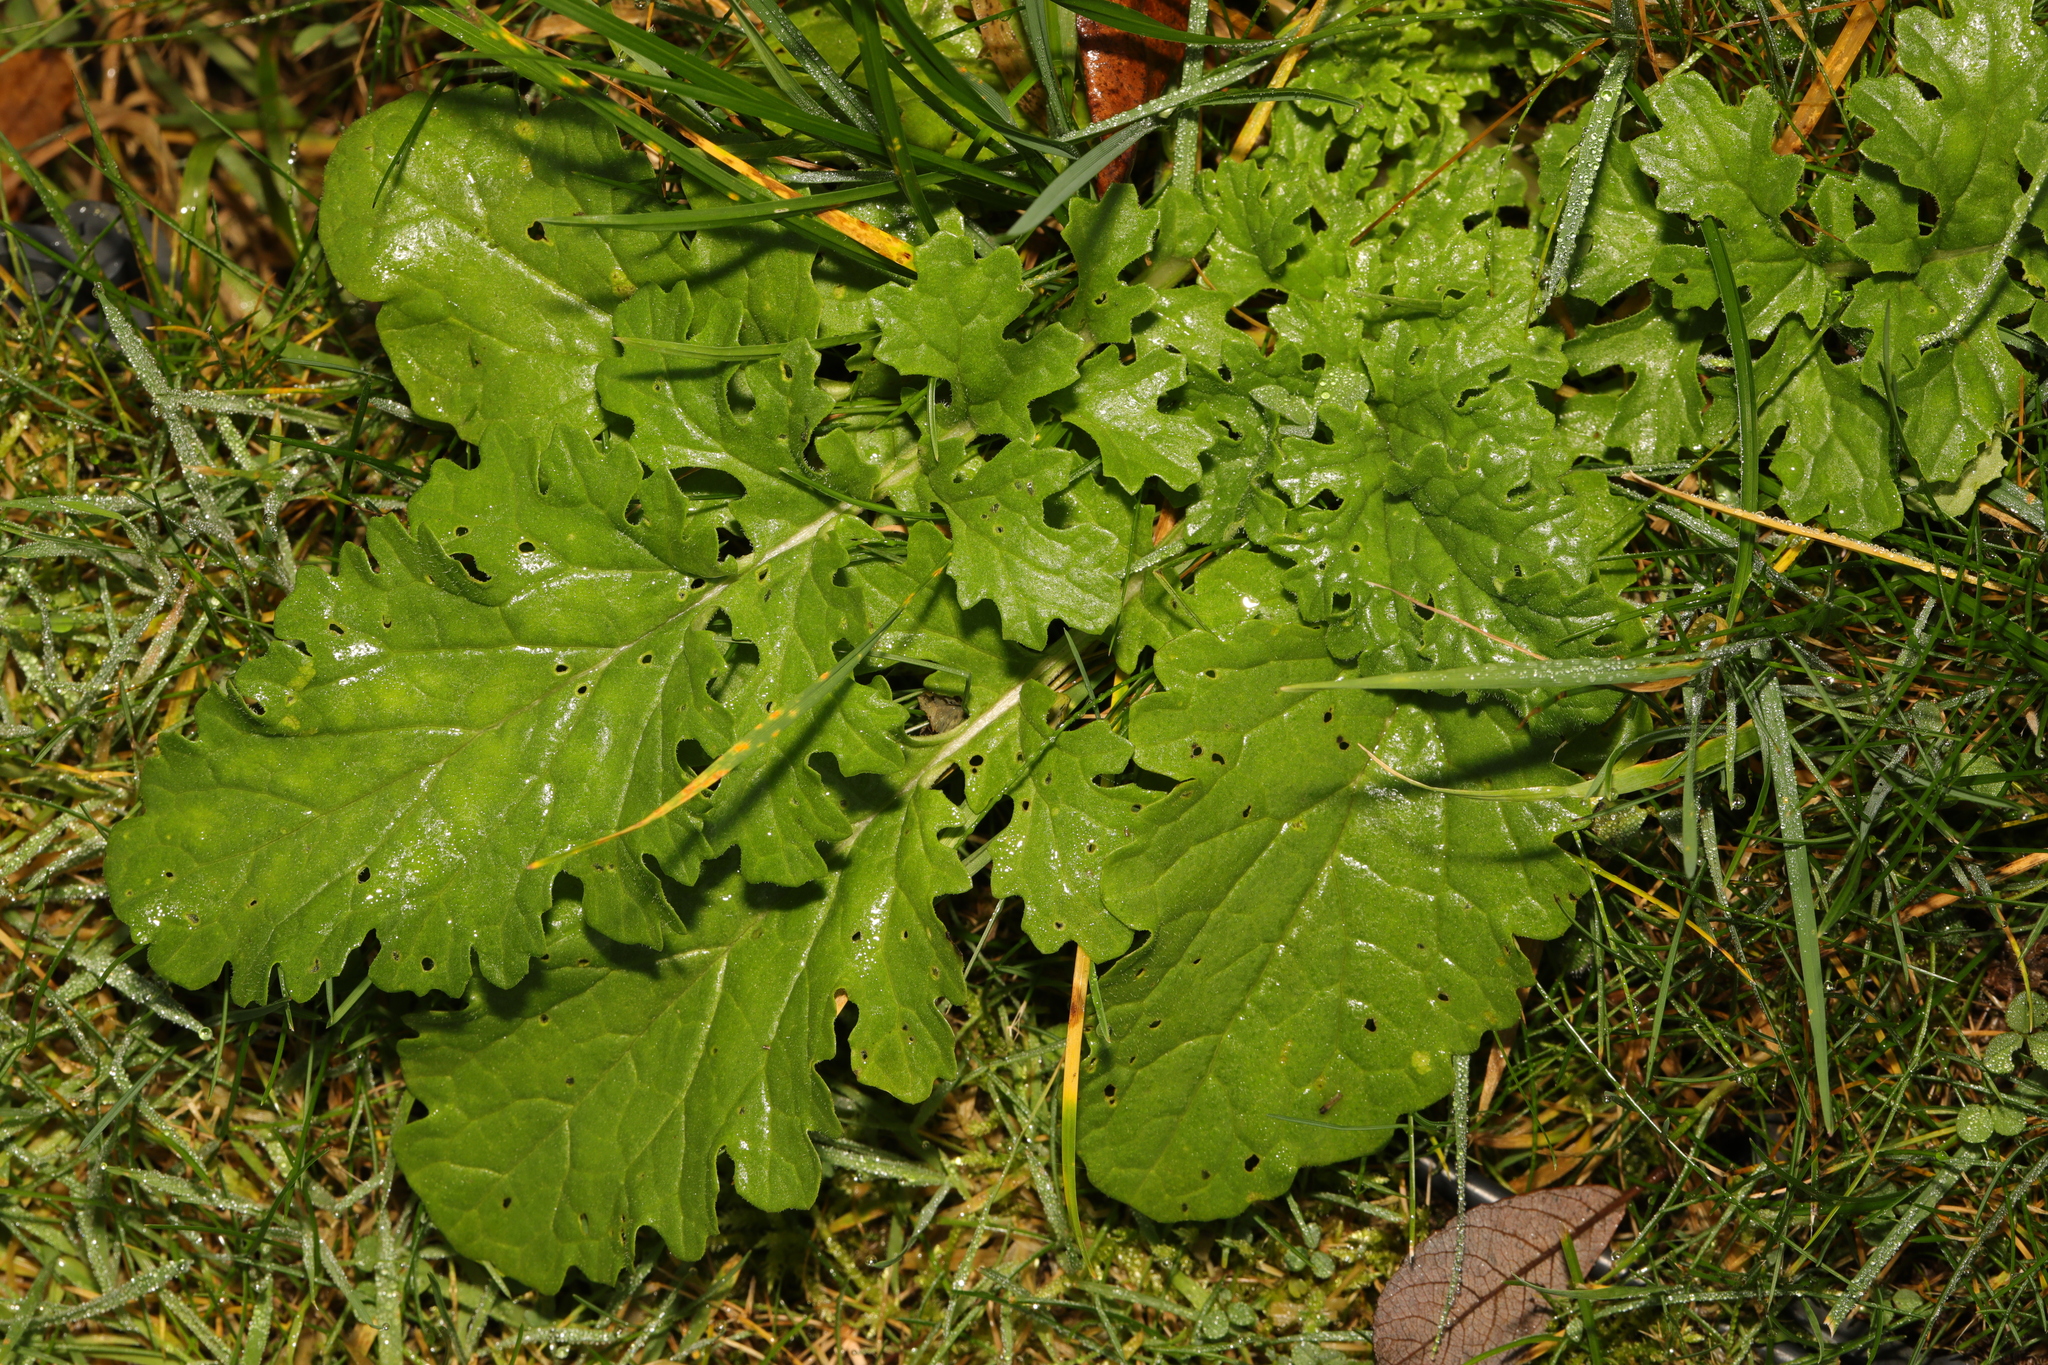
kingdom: Plantae
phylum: Tracheophyta
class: Magnoliopsida
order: Asterales
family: Asteraceae
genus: Jacobaea
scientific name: Jacobaea vulgaris
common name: Stinking willie
